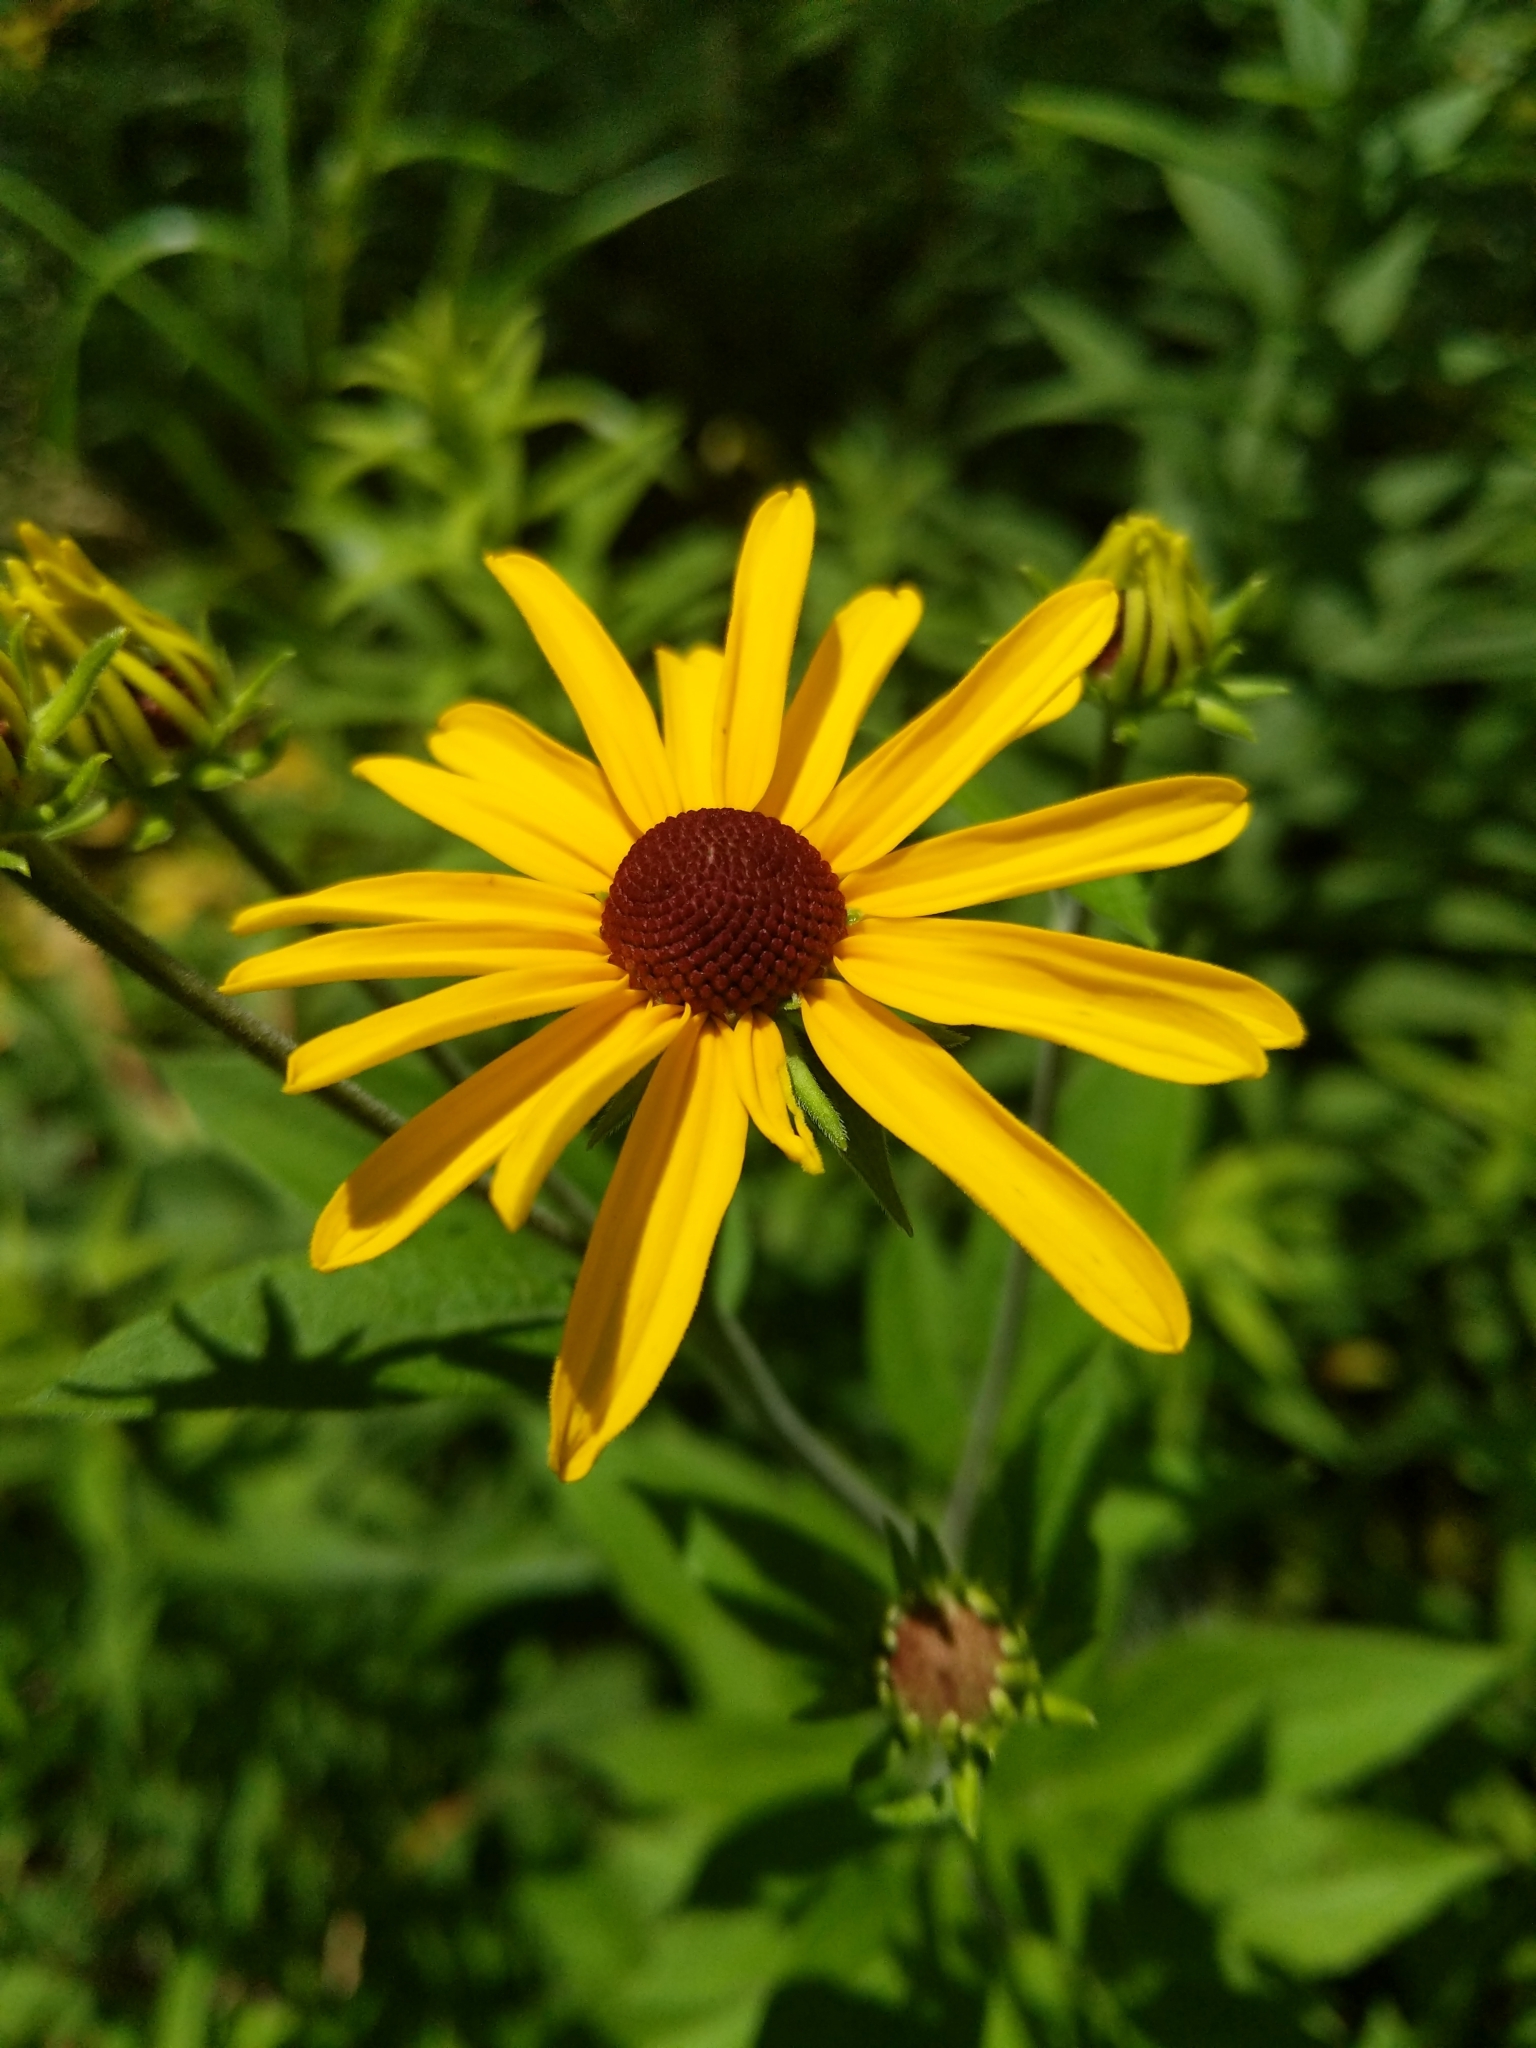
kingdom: Plantae
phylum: Tracheophyta
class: Magnoliopsida
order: Asterales
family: Asteraceae
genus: Rudbeckia
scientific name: Rudbeckia subtomentosa
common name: Sweet coneflower
